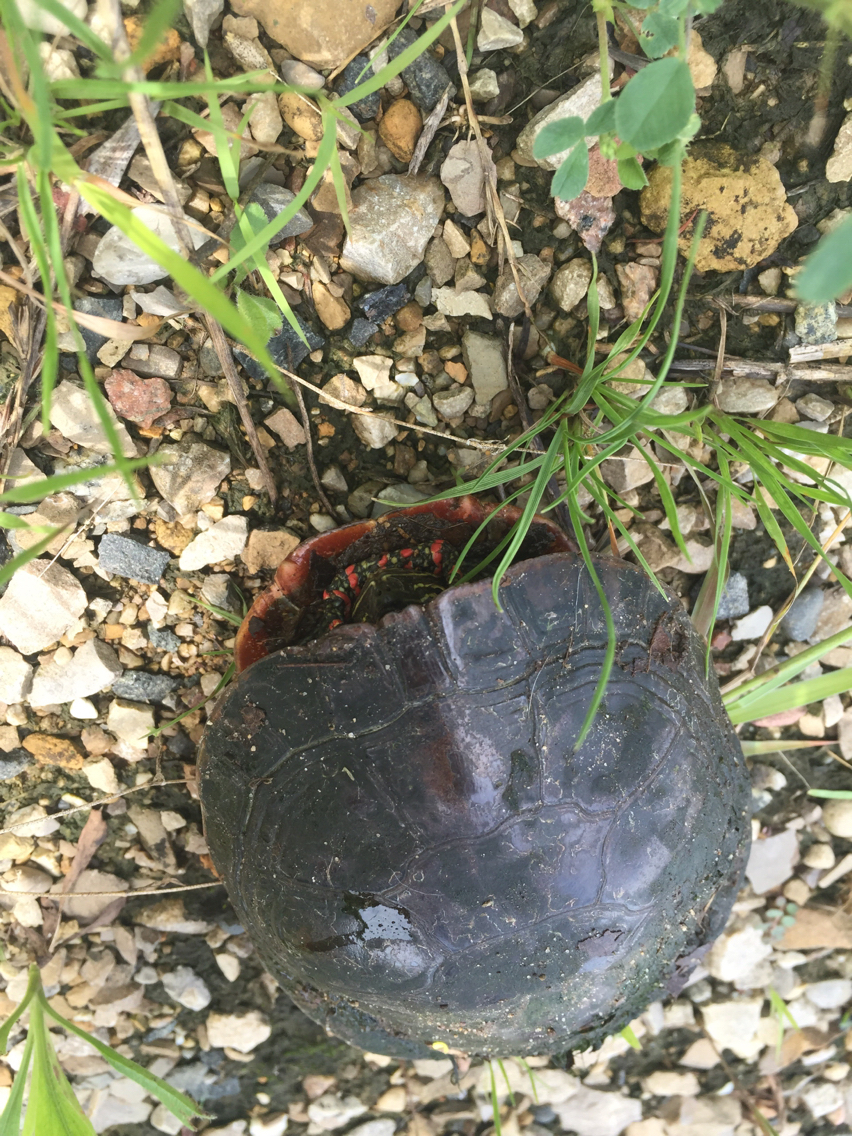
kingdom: Animalia
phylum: Chordata
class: Testudines
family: Emydidae
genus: Chrysemys
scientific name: Chrysemys picta
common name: Painted turtle
